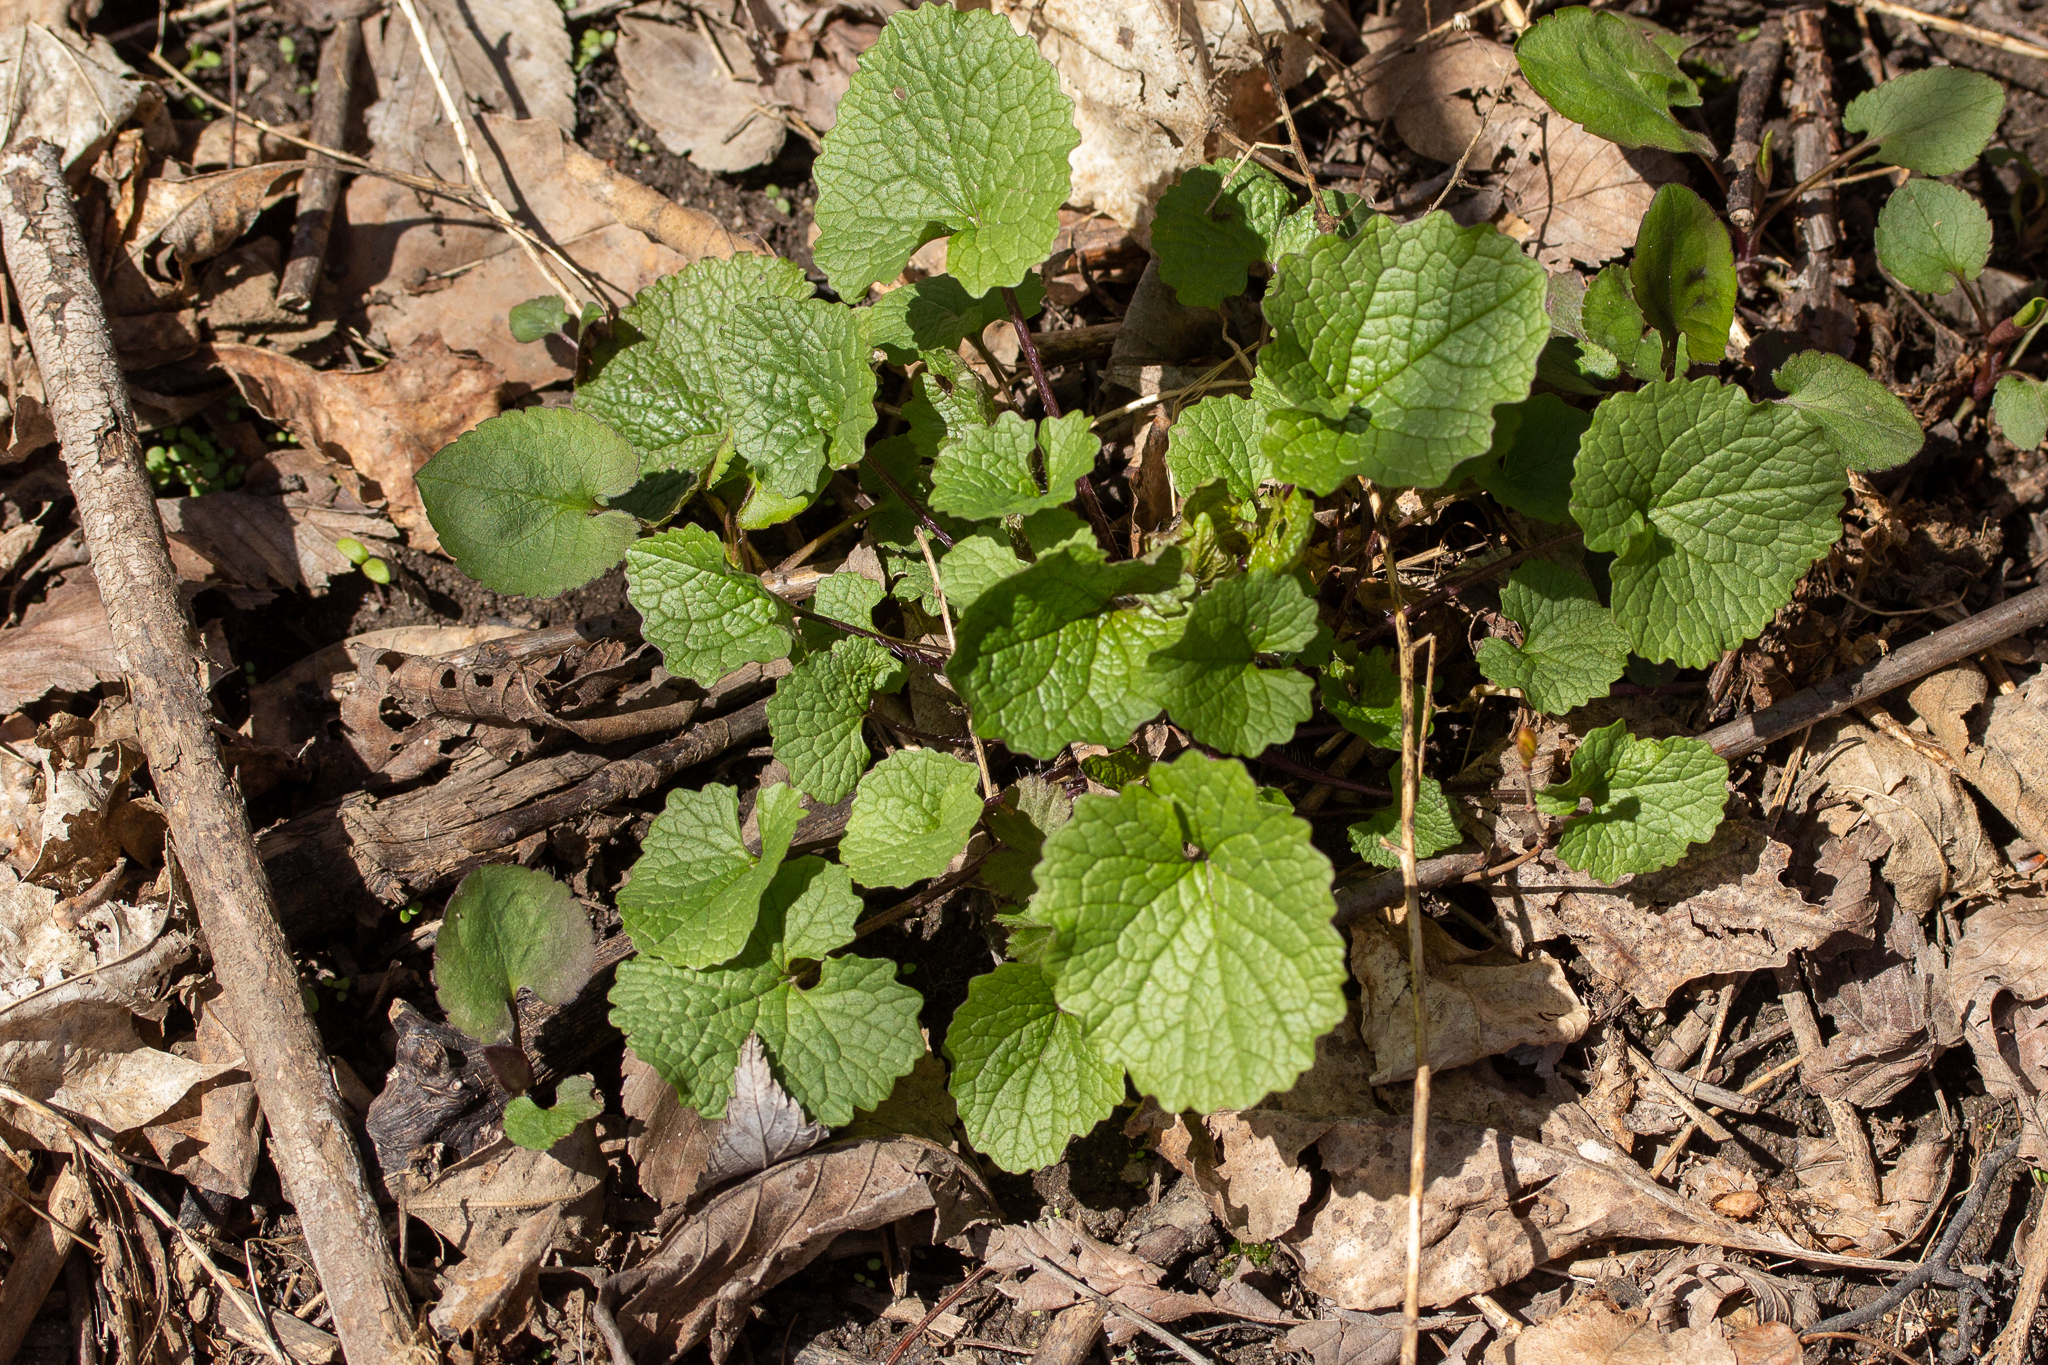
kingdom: Plantae
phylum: Tracheophyta
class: Magnoliopsida
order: Brassicales
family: Brassicaceae
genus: Alliaria
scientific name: Alliaria petiolata
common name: Garlic mustard
